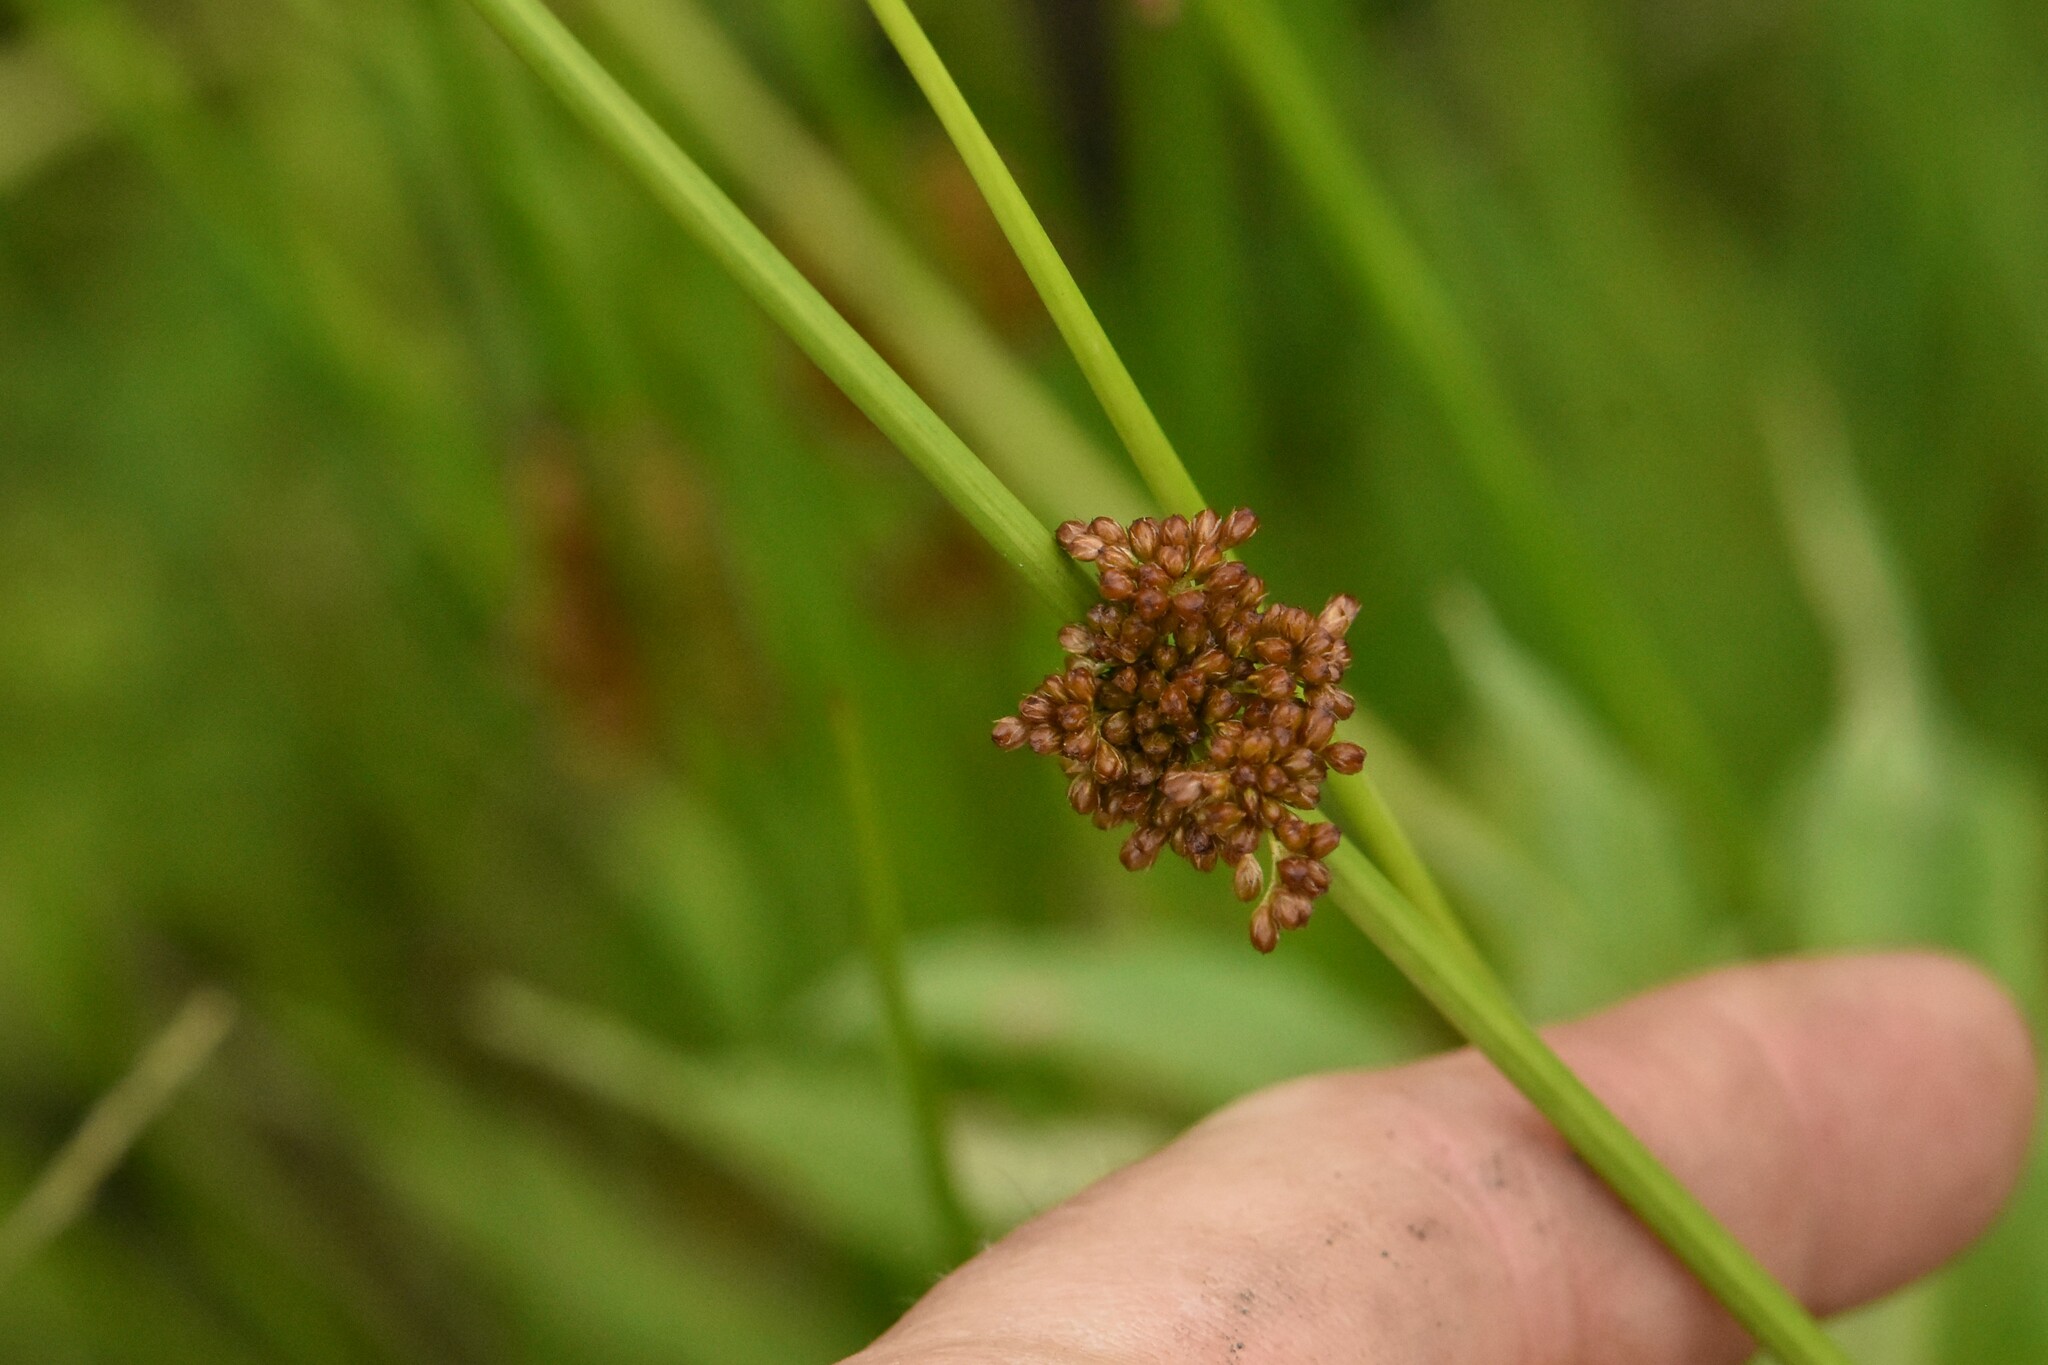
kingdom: Plantae
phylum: Tracheophyta
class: Liliopsida
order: Poales
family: Juncaceae
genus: Juncus
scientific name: Juncus effusus
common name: Soft rush
